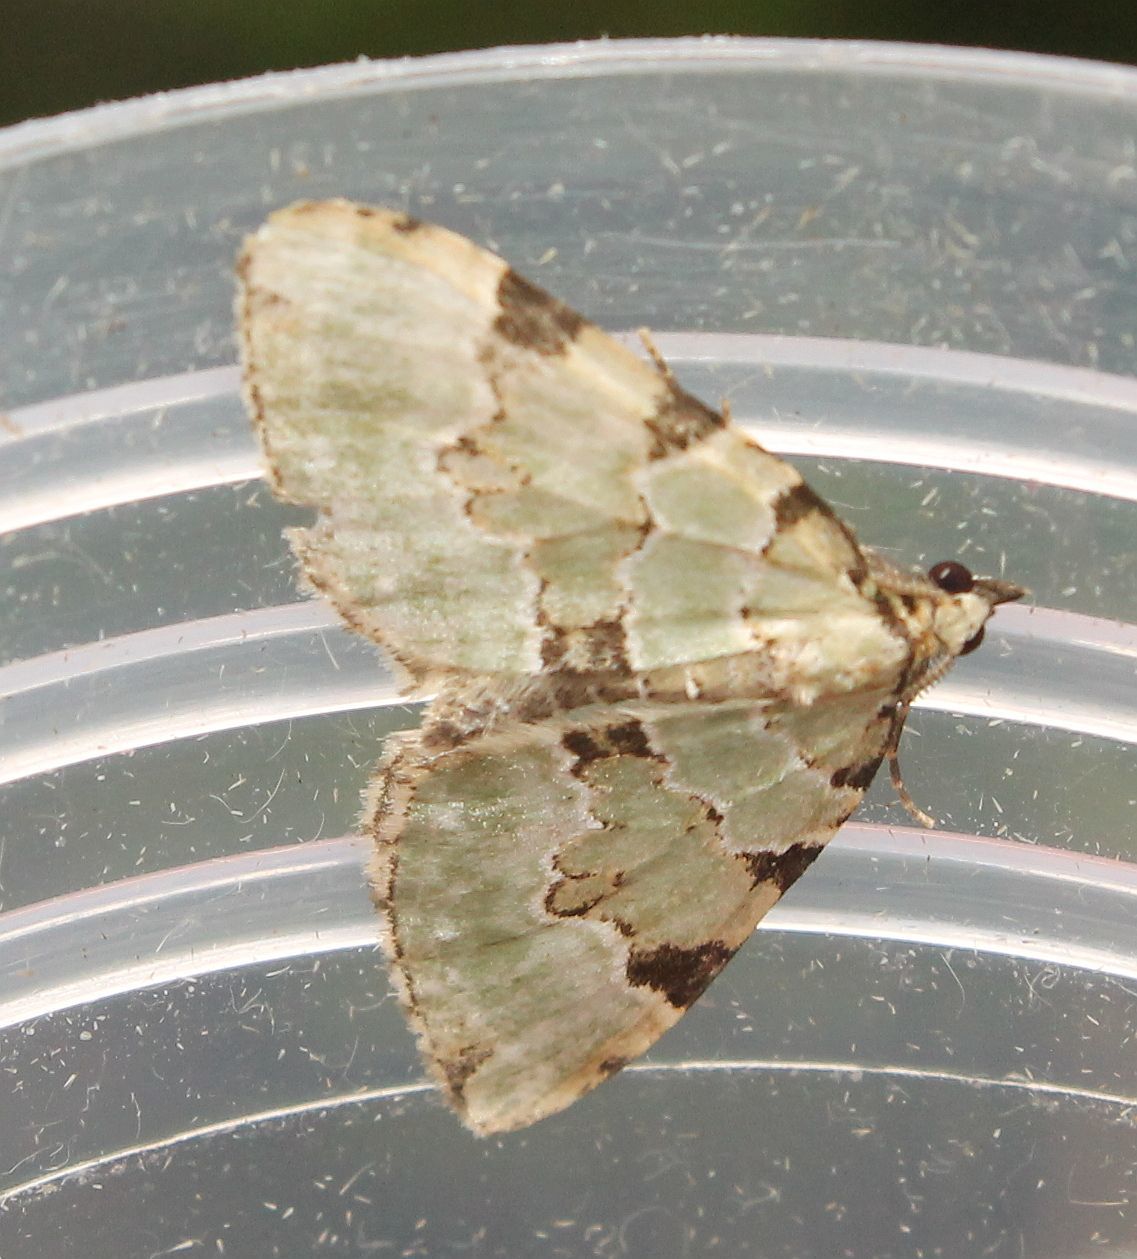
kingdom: Animalia
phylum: Arthropoda
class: Insecta
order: Lepidoptera
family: Geometridae
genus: Colostygia
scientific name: Colostygia pectinataria
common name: Green carpet
